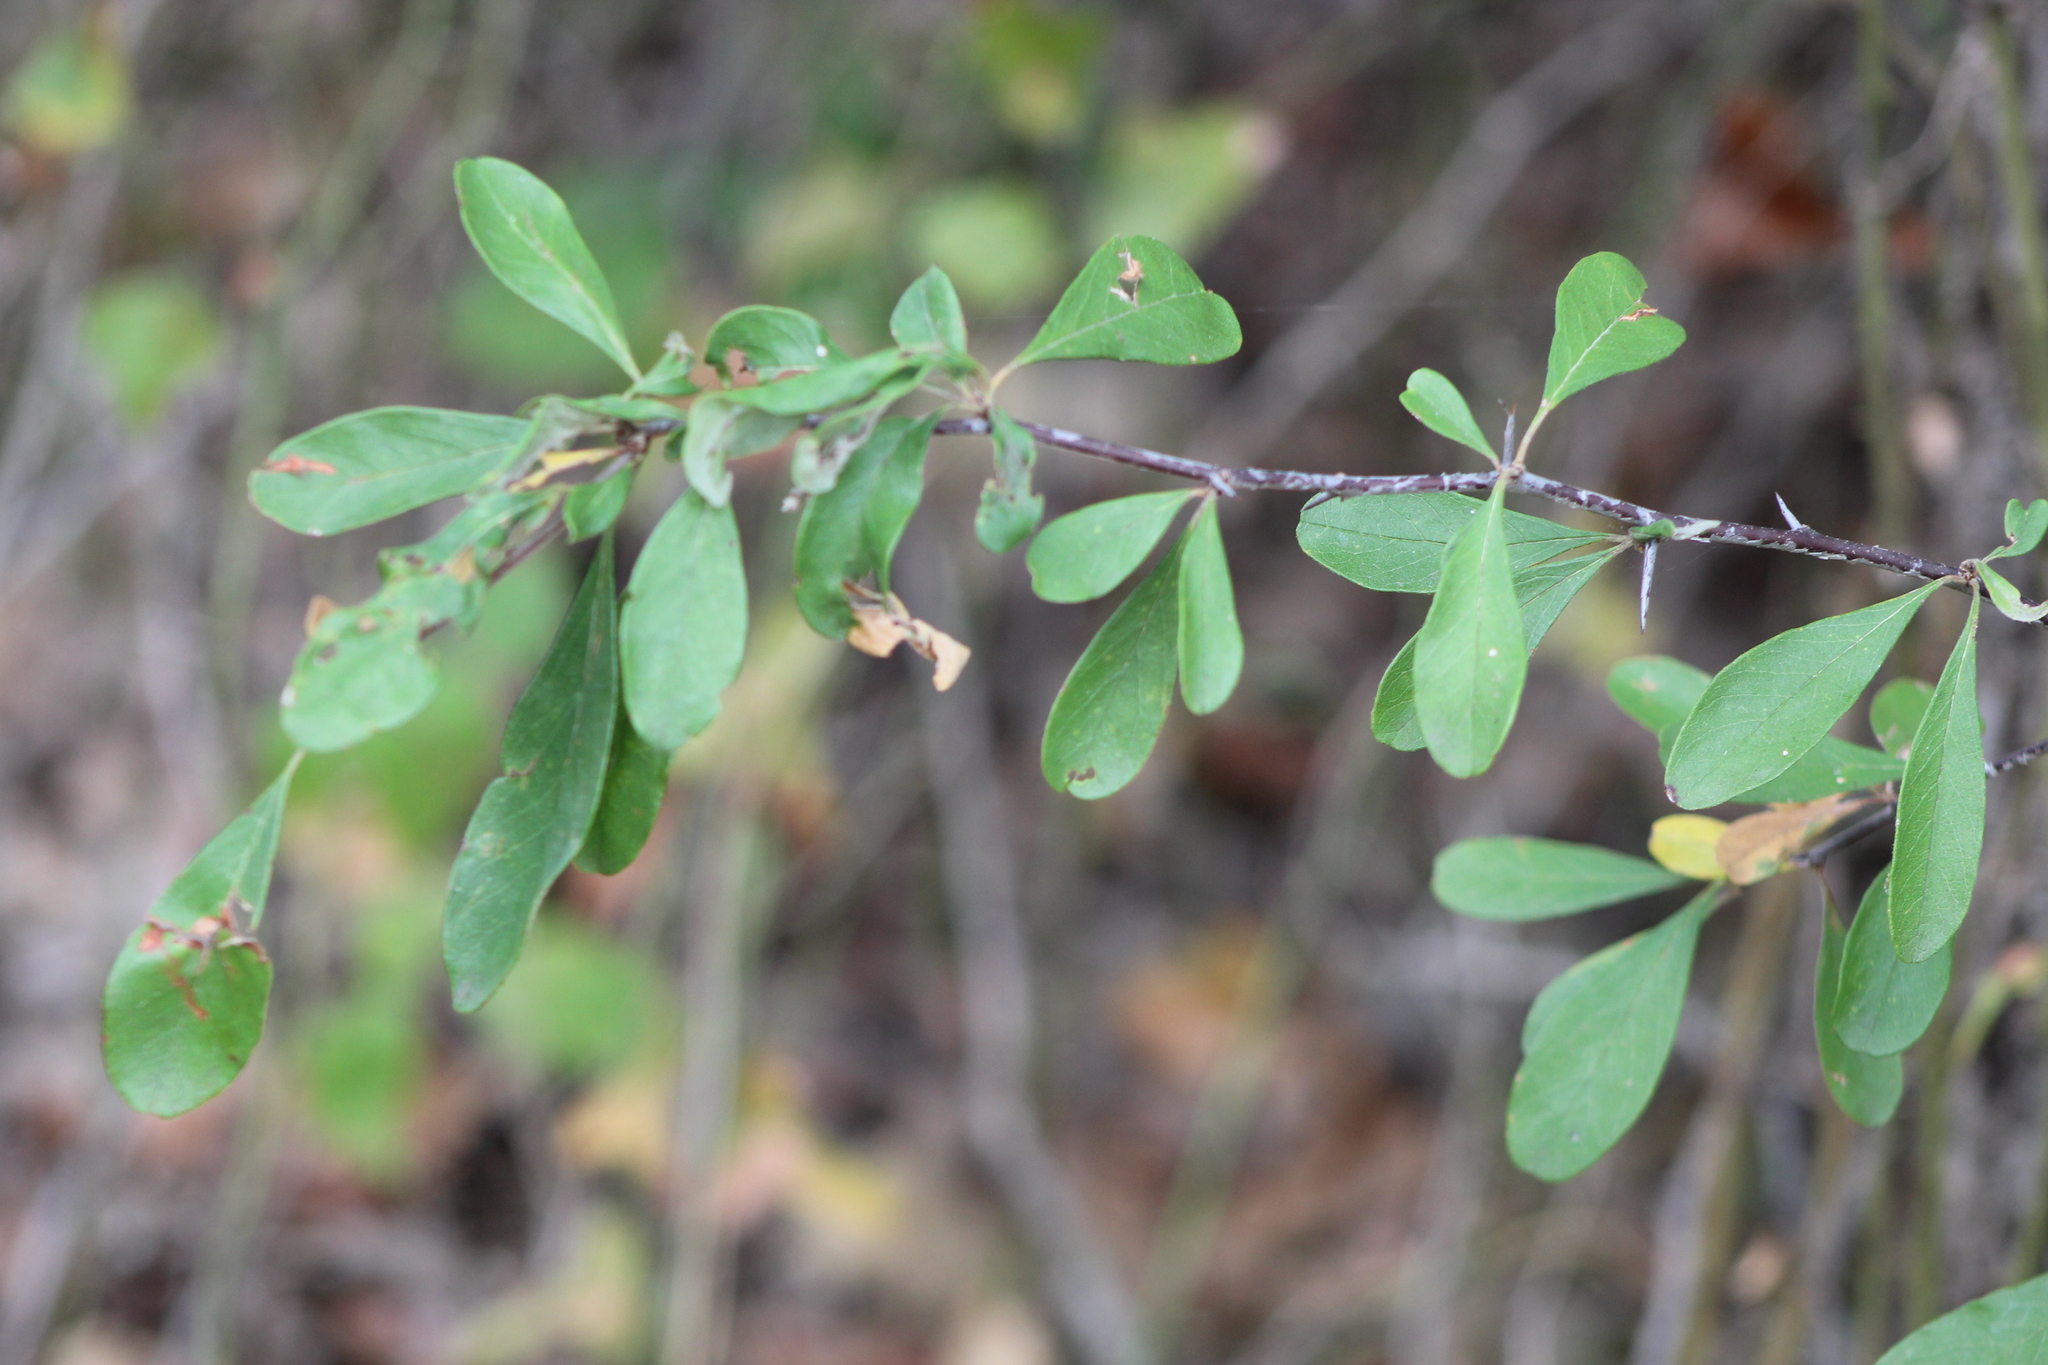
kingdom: Plantae
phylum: Tracheophyta
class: Magnoliopsida
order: Ericales
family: Sapotaceae
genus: Sideroxylon
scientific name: Sideroxylon lanuginosum
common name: Chittamwood
